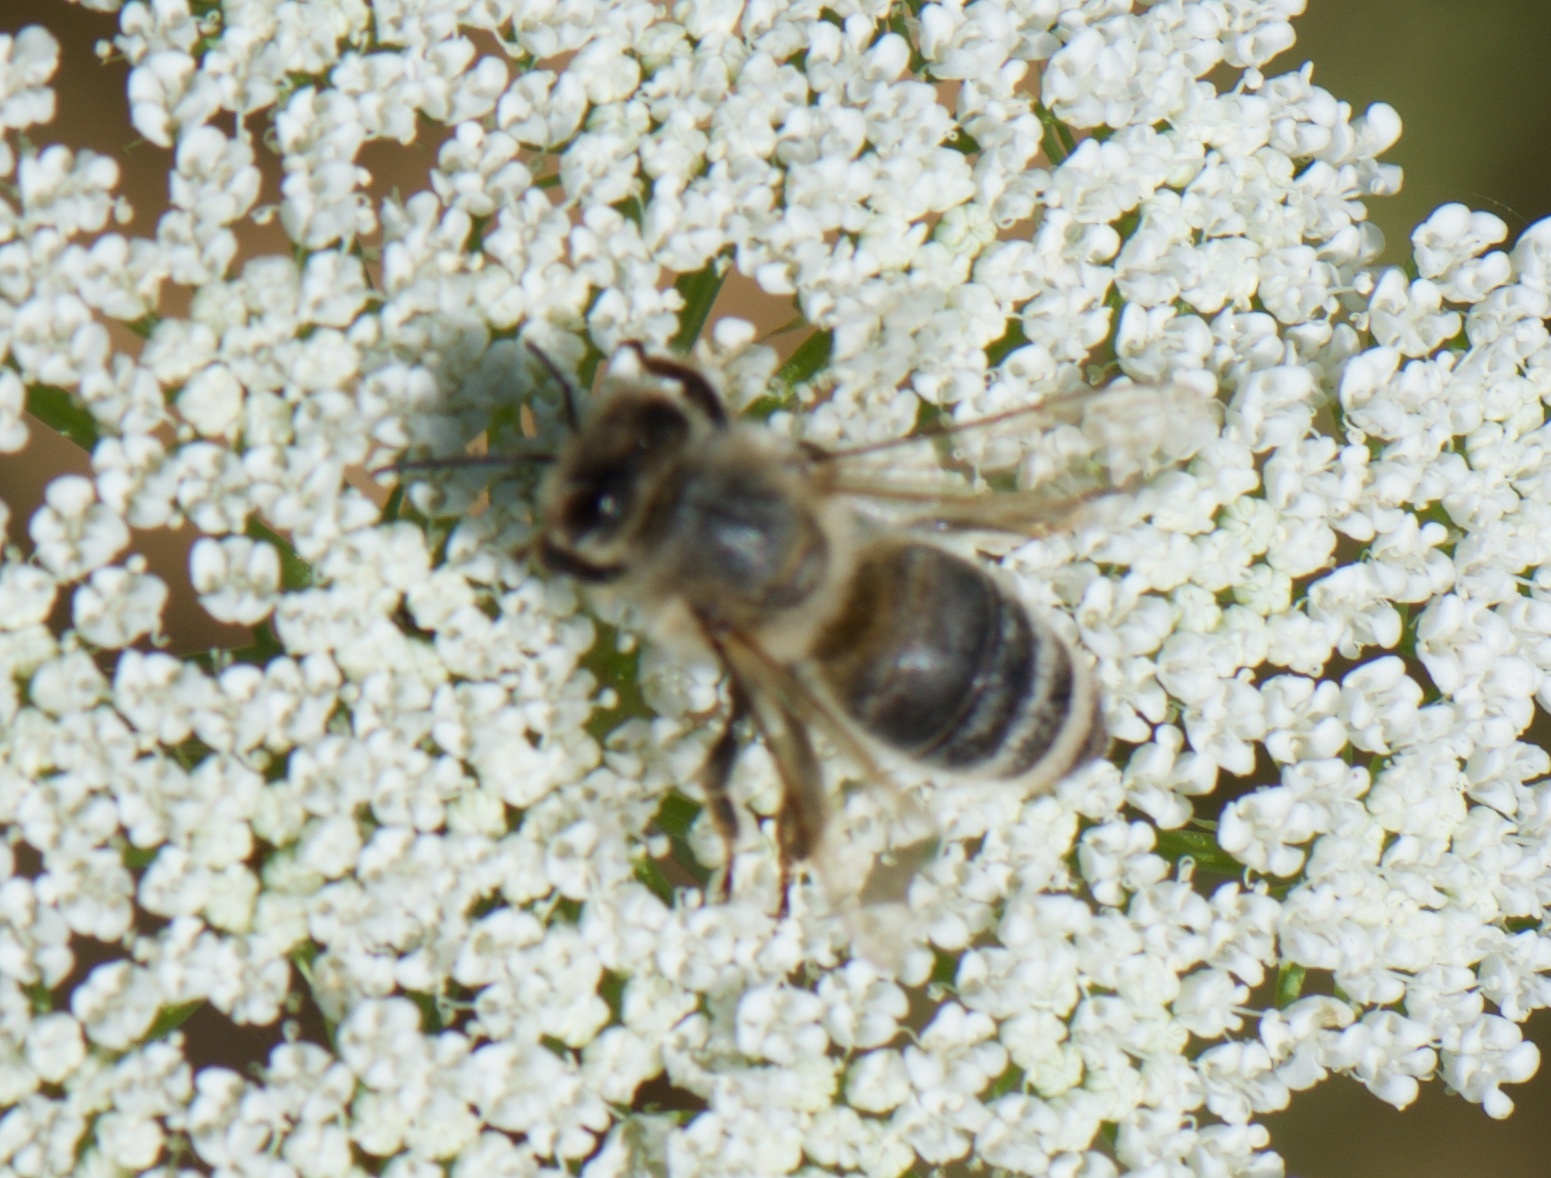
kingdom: Animalia
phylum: Arthropoda
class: Insecta
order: Hymenoptera
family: Apidae
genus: Apis
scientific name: Apis mellifera
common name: Honey bee
